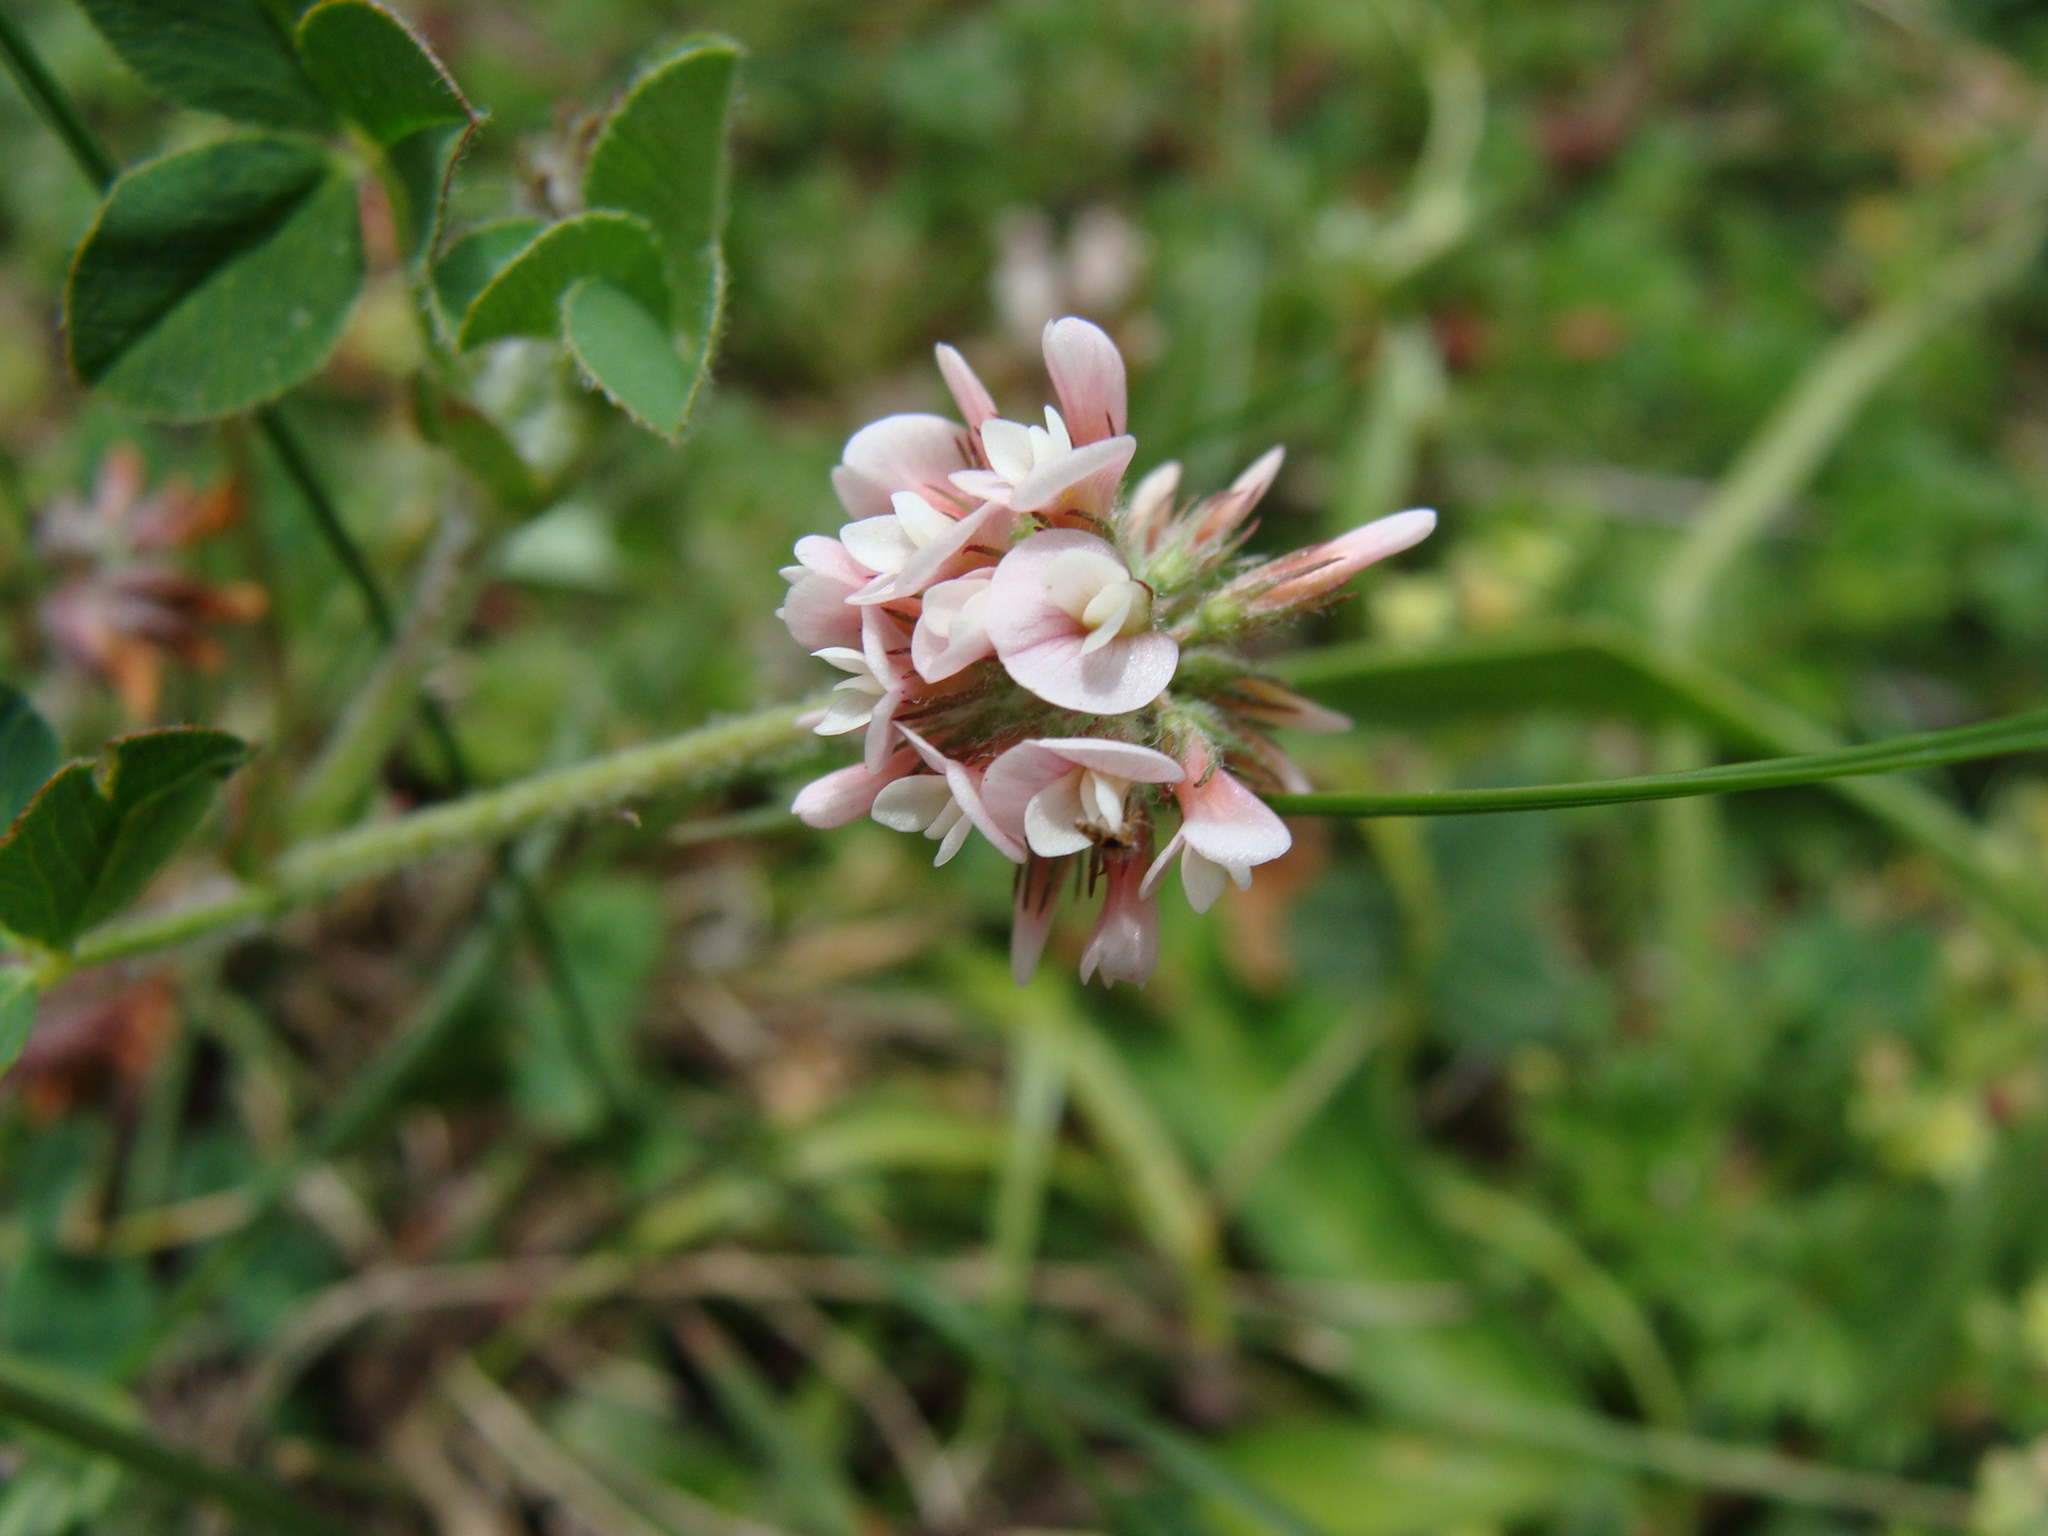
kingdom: Plantae
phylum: Tracheophyta
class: Magnoliopsida
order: Fabales
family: Fabaceae
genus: Trifolium
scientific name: Trifolium amabile
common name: Aztec clover
